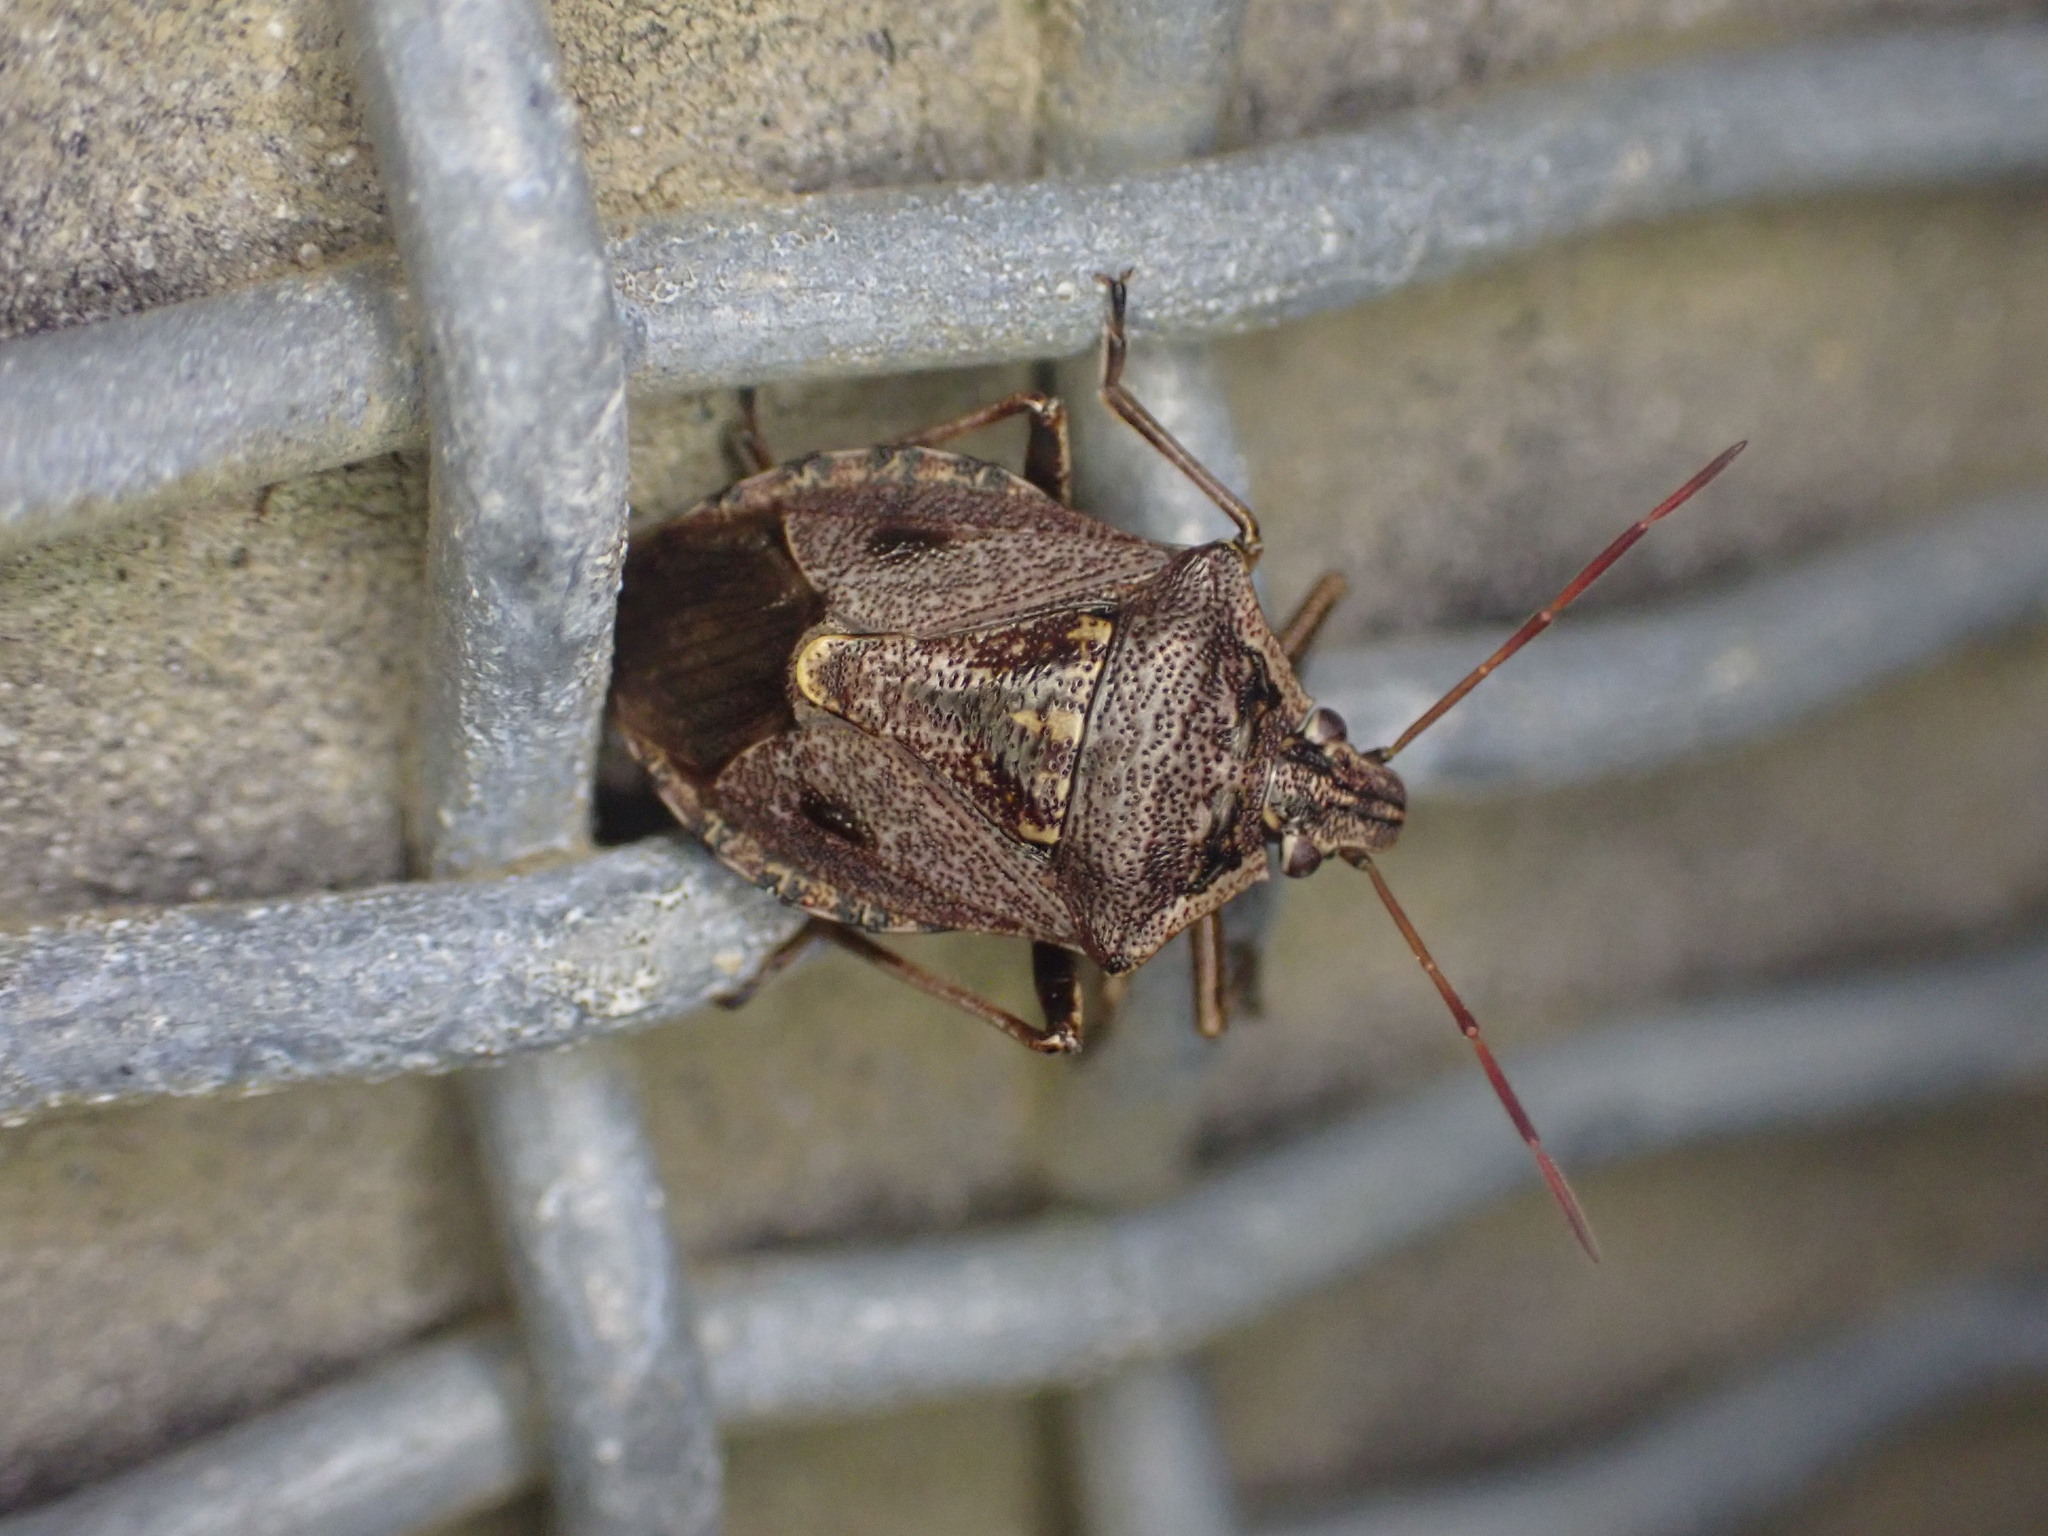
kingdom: Animalia
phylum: Arthropoda
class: Insecta
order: Hemiptera
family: Pentatomidae
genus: Cermatulus
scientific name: Cermatulus nasalis
